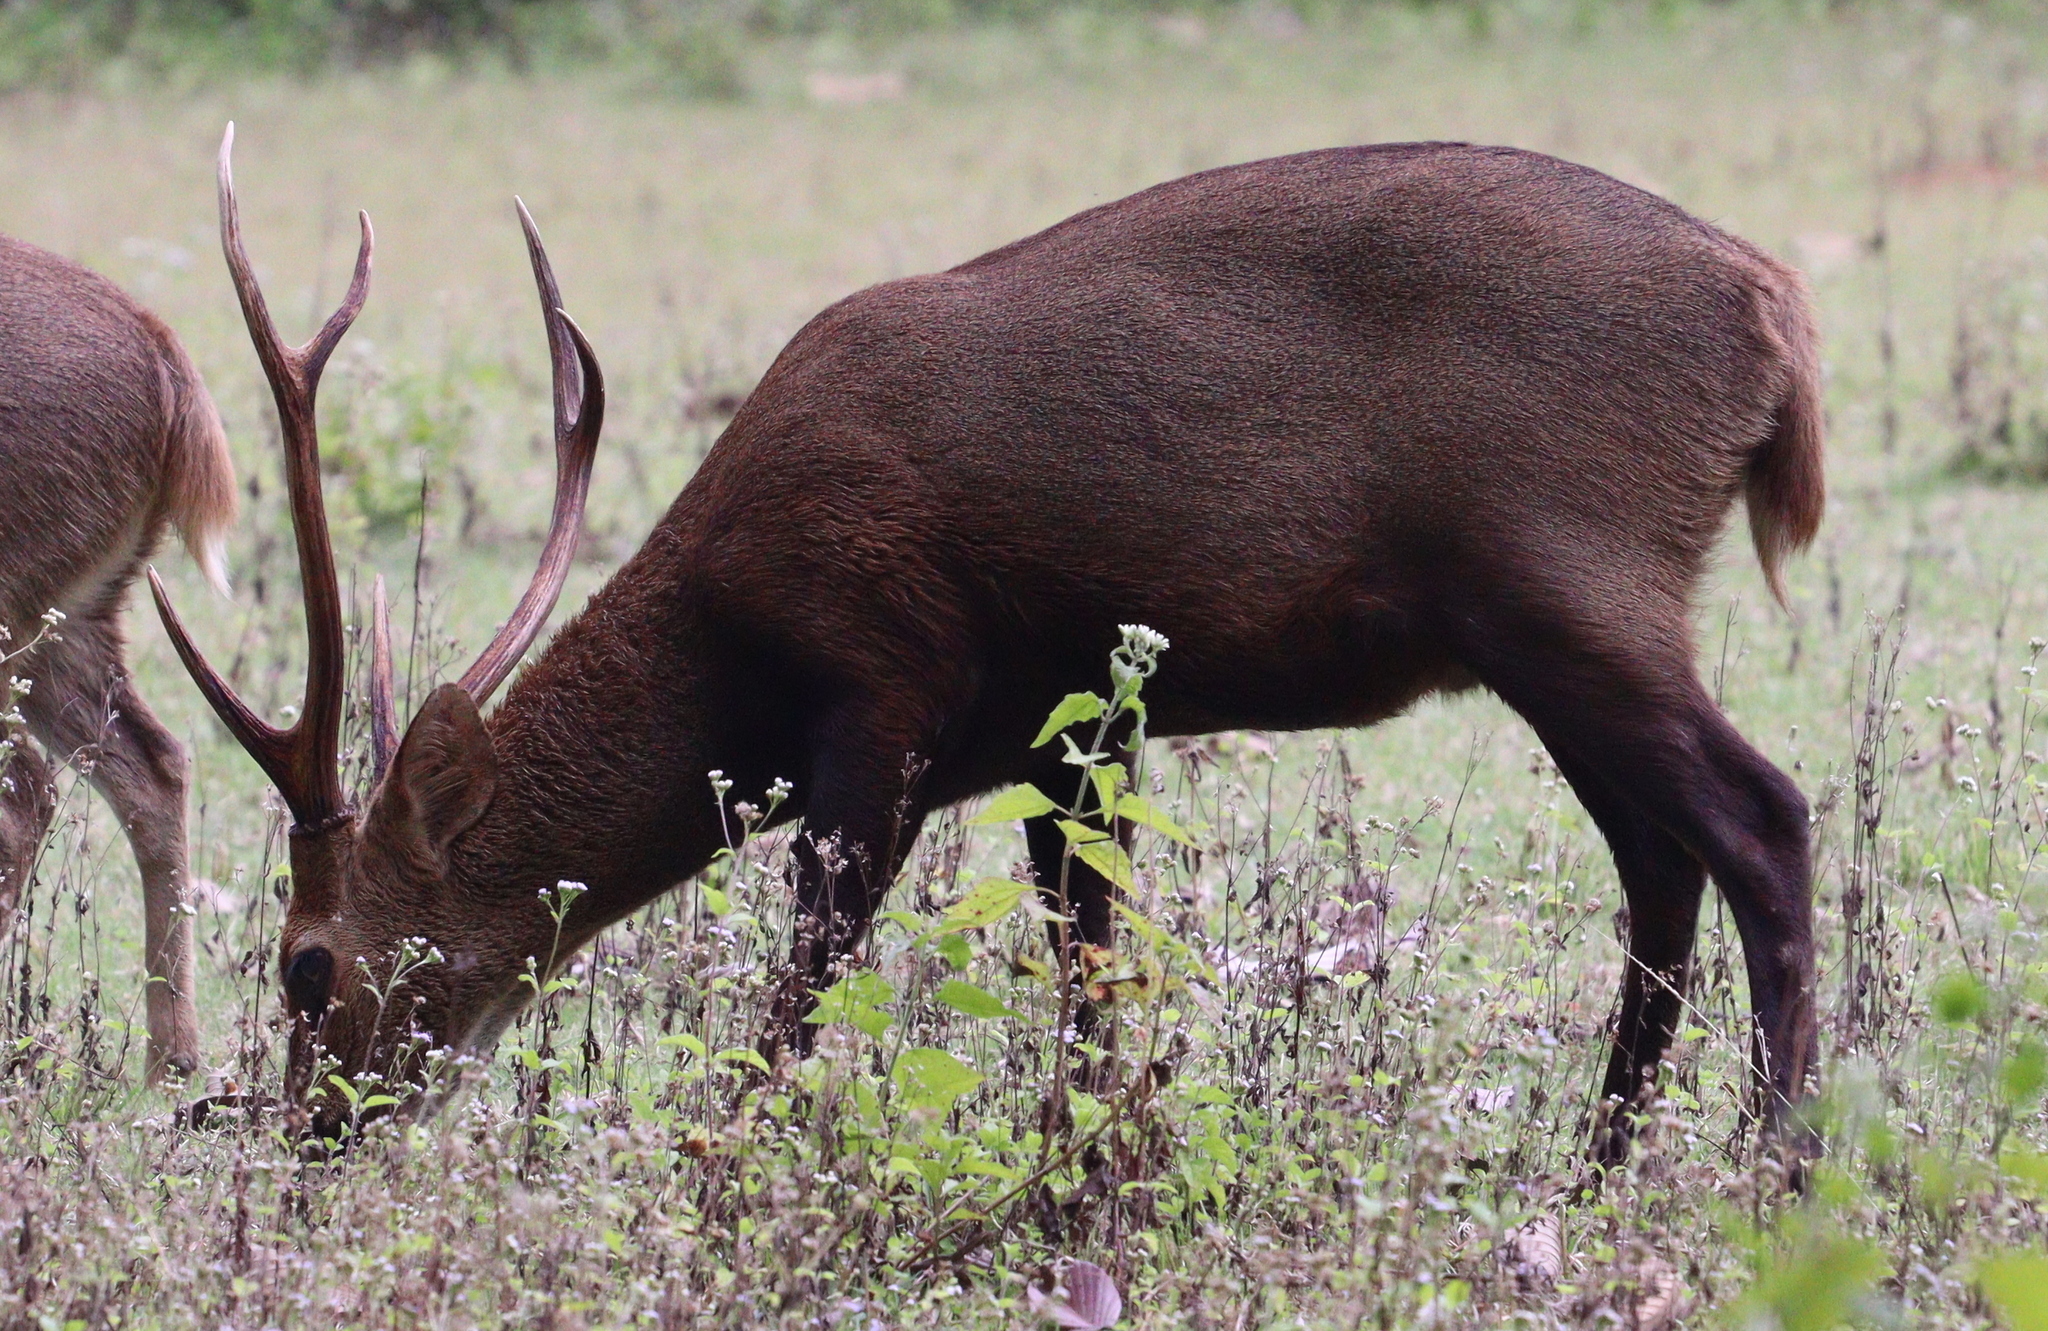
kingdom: Animalia
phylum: Chordata
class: Mammalia
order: Artiodactyla
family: Cervidae
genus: Axis
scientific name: Axis porcinus
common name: Hog deer
